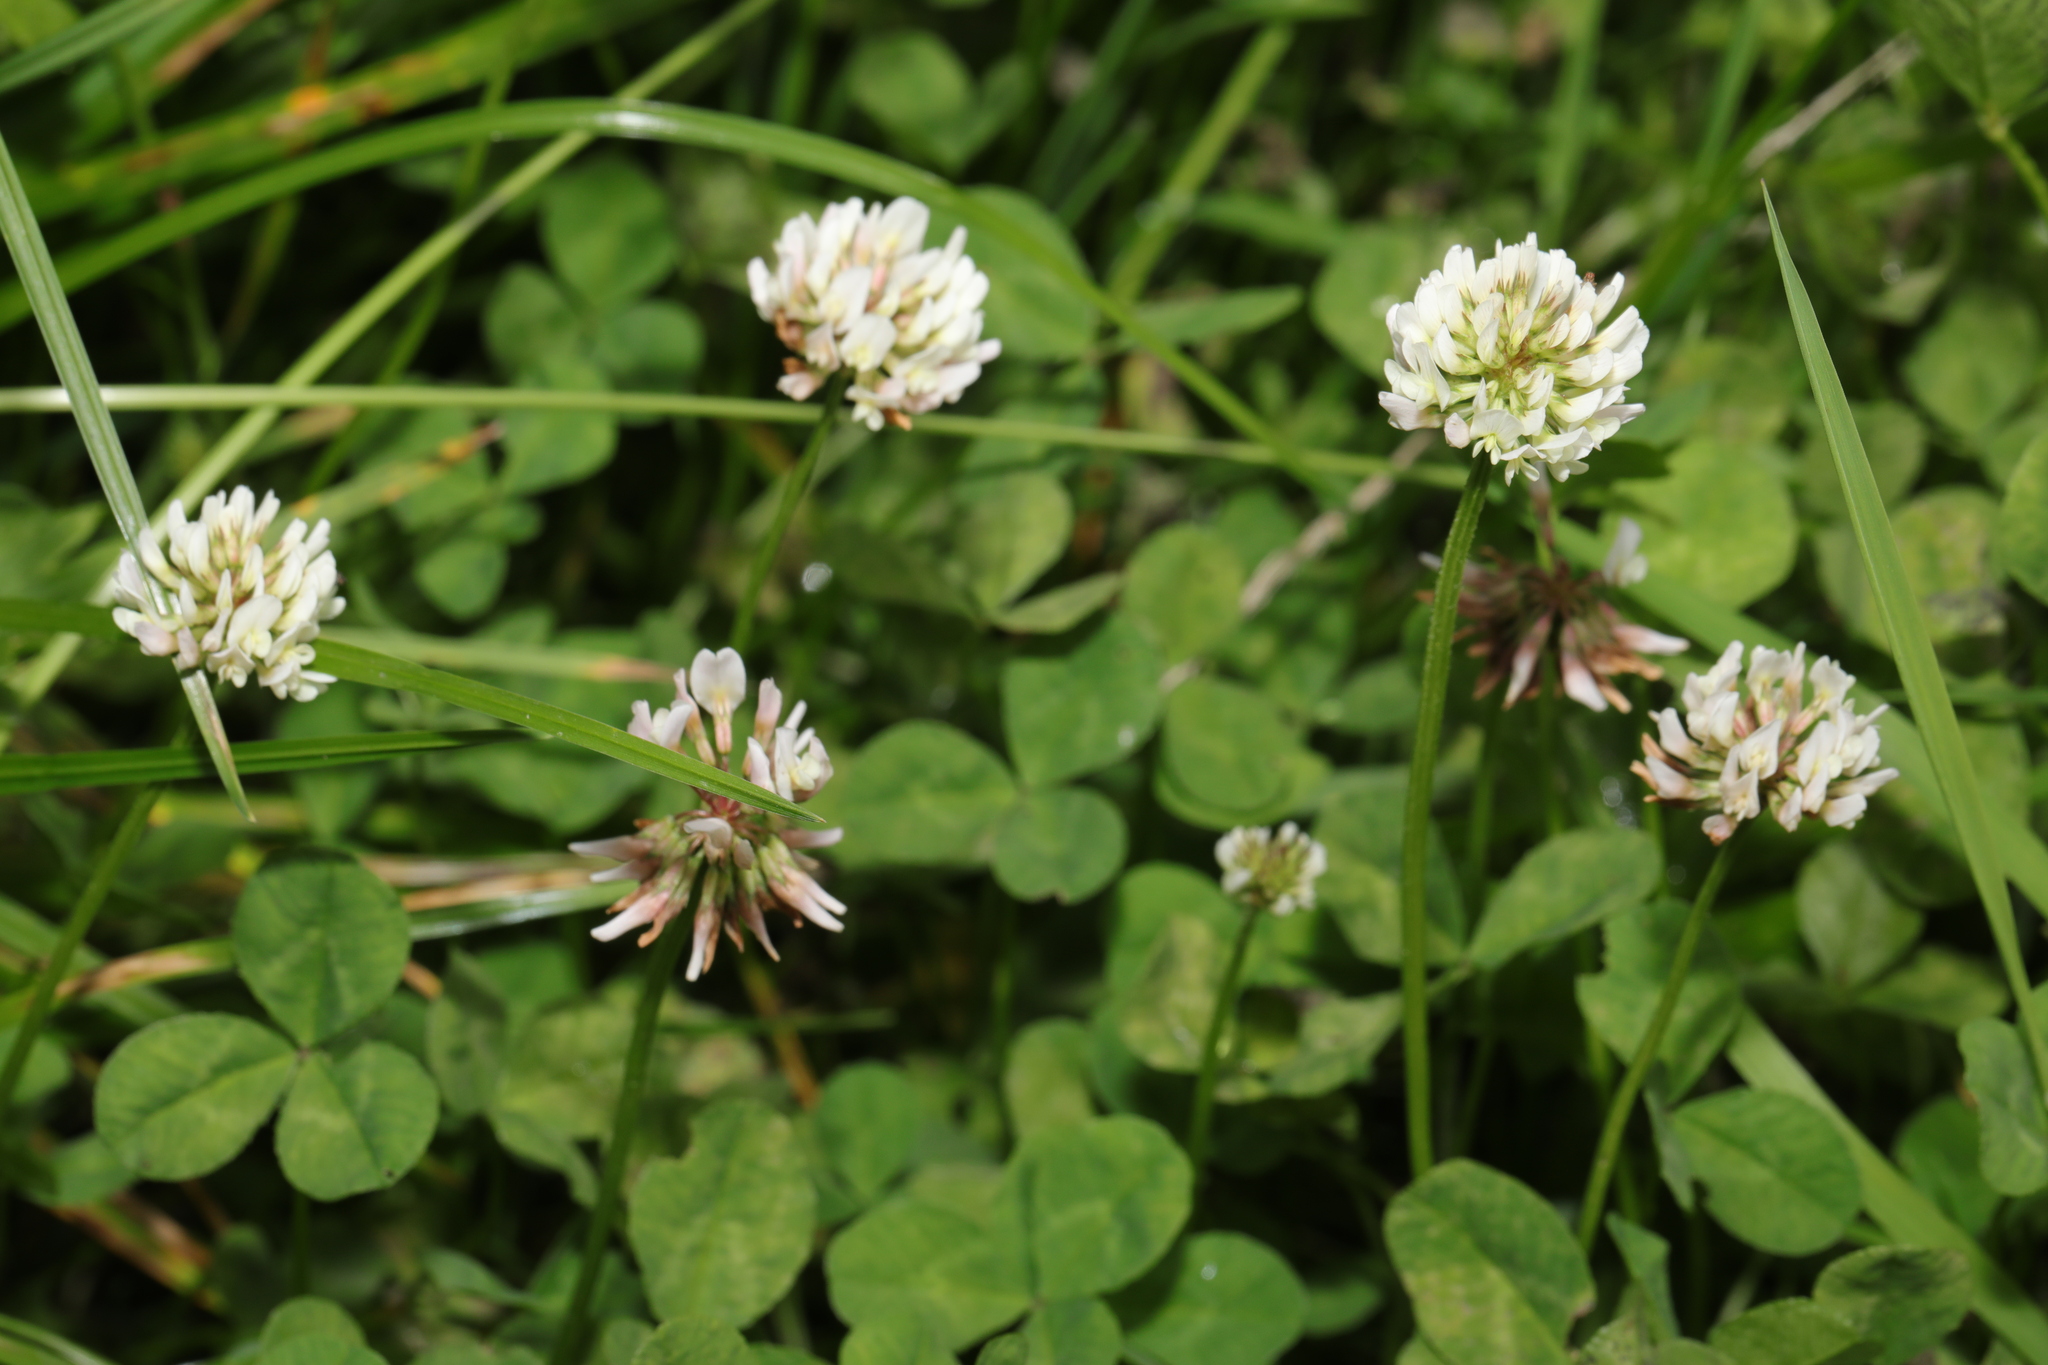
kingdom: Plantae
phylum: Tracheophyta
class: Magnoliopsida
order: Fabales
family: Fabaceae
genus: Trifolium
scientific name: Trifolium repens
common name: White clover
